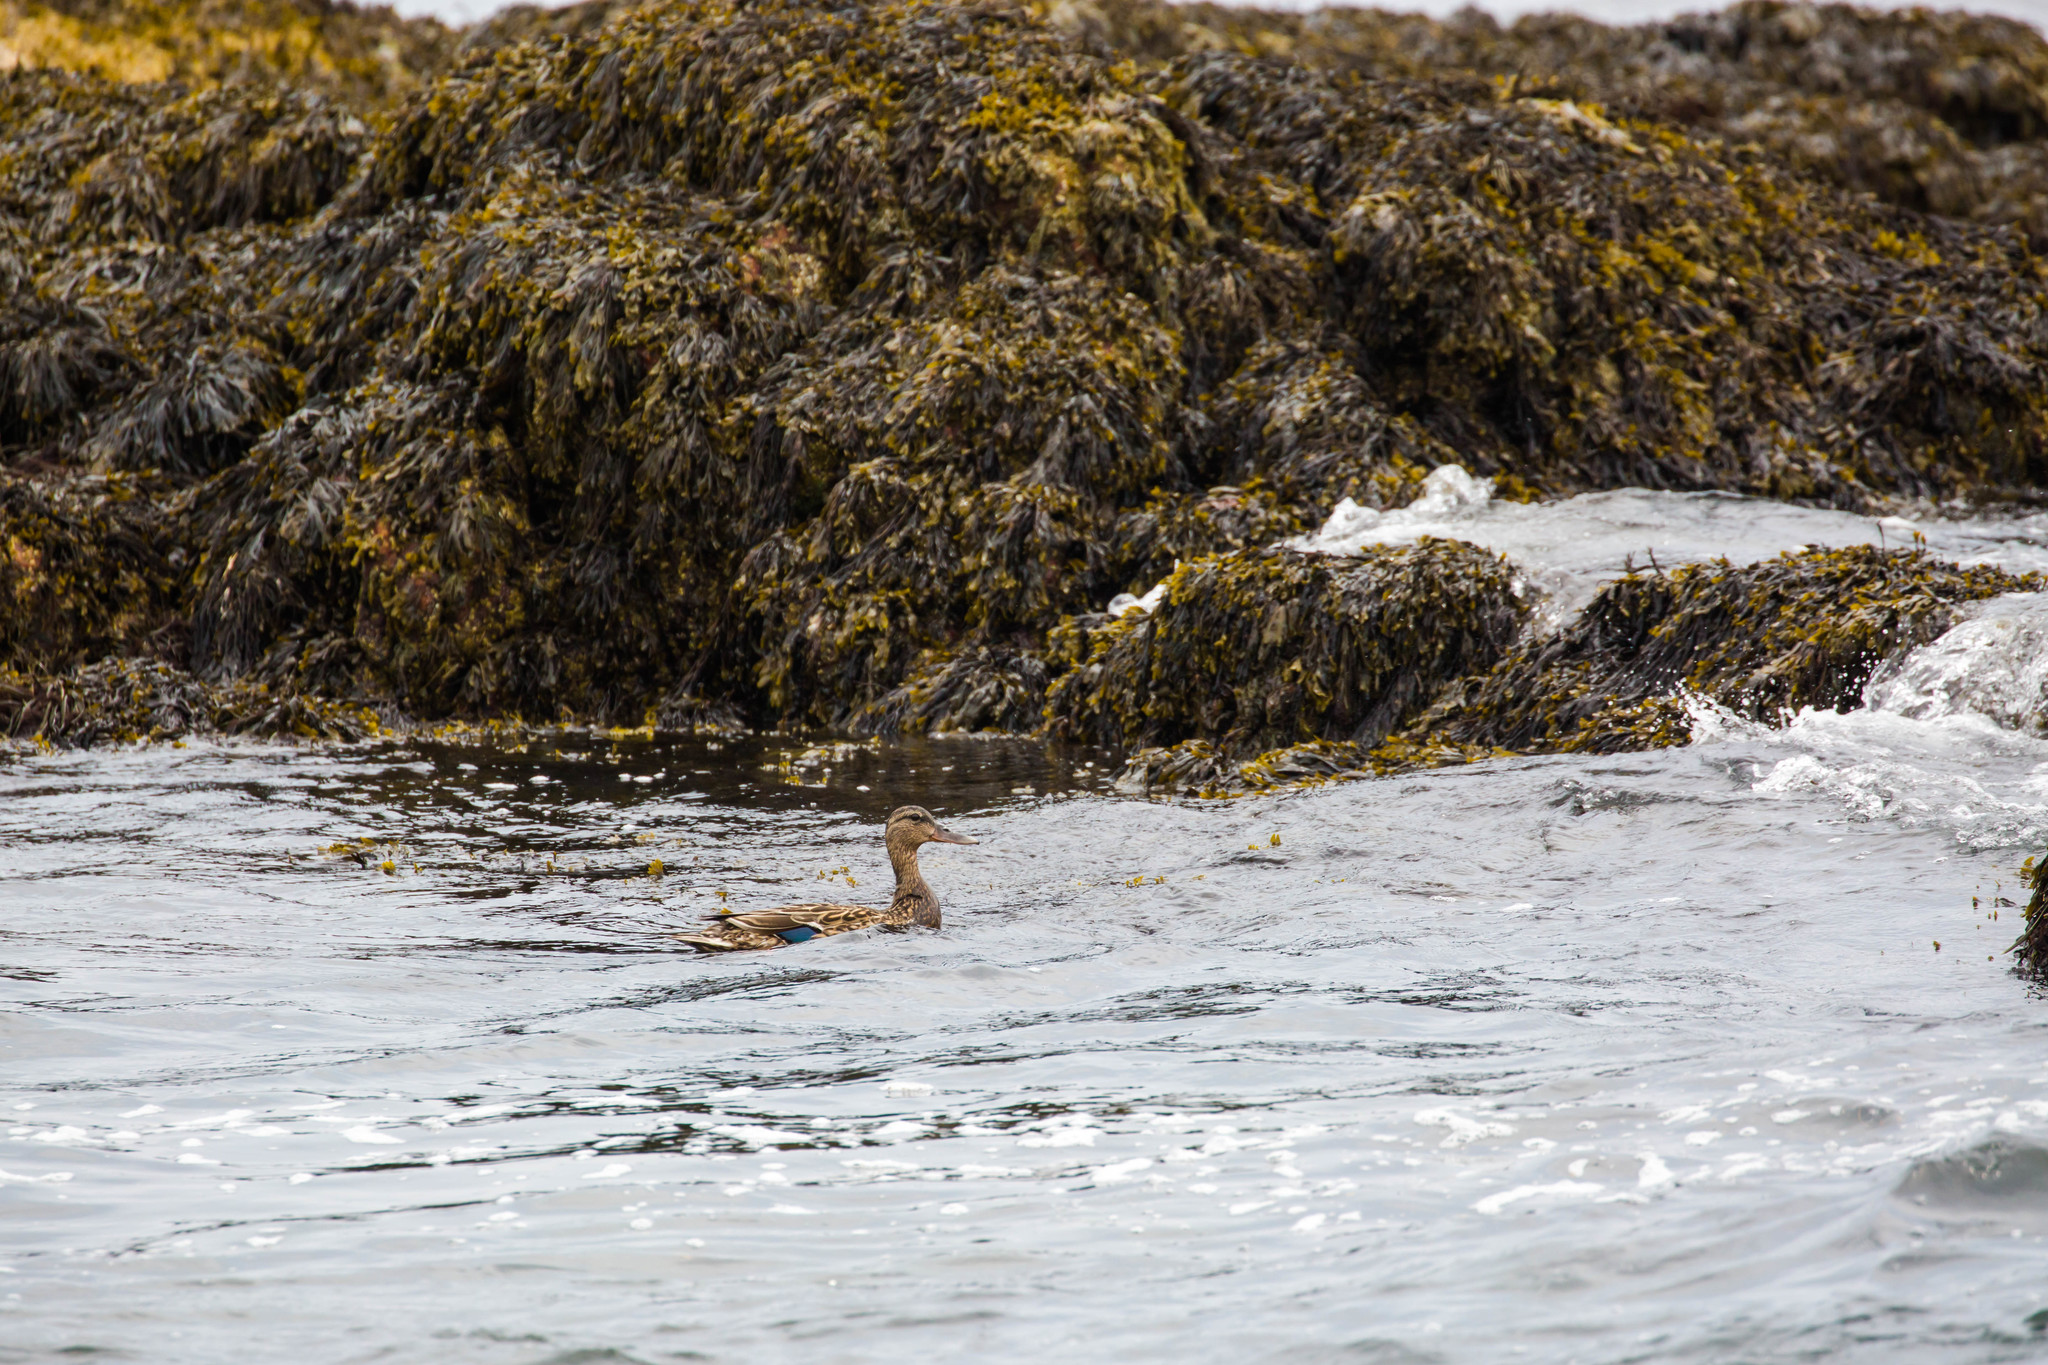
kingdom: Animalia
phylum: Chordata
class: Aves
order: Anseriformes
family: Anatidae
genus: Anas
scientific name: Anas platyrhynchos
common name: Mallard
